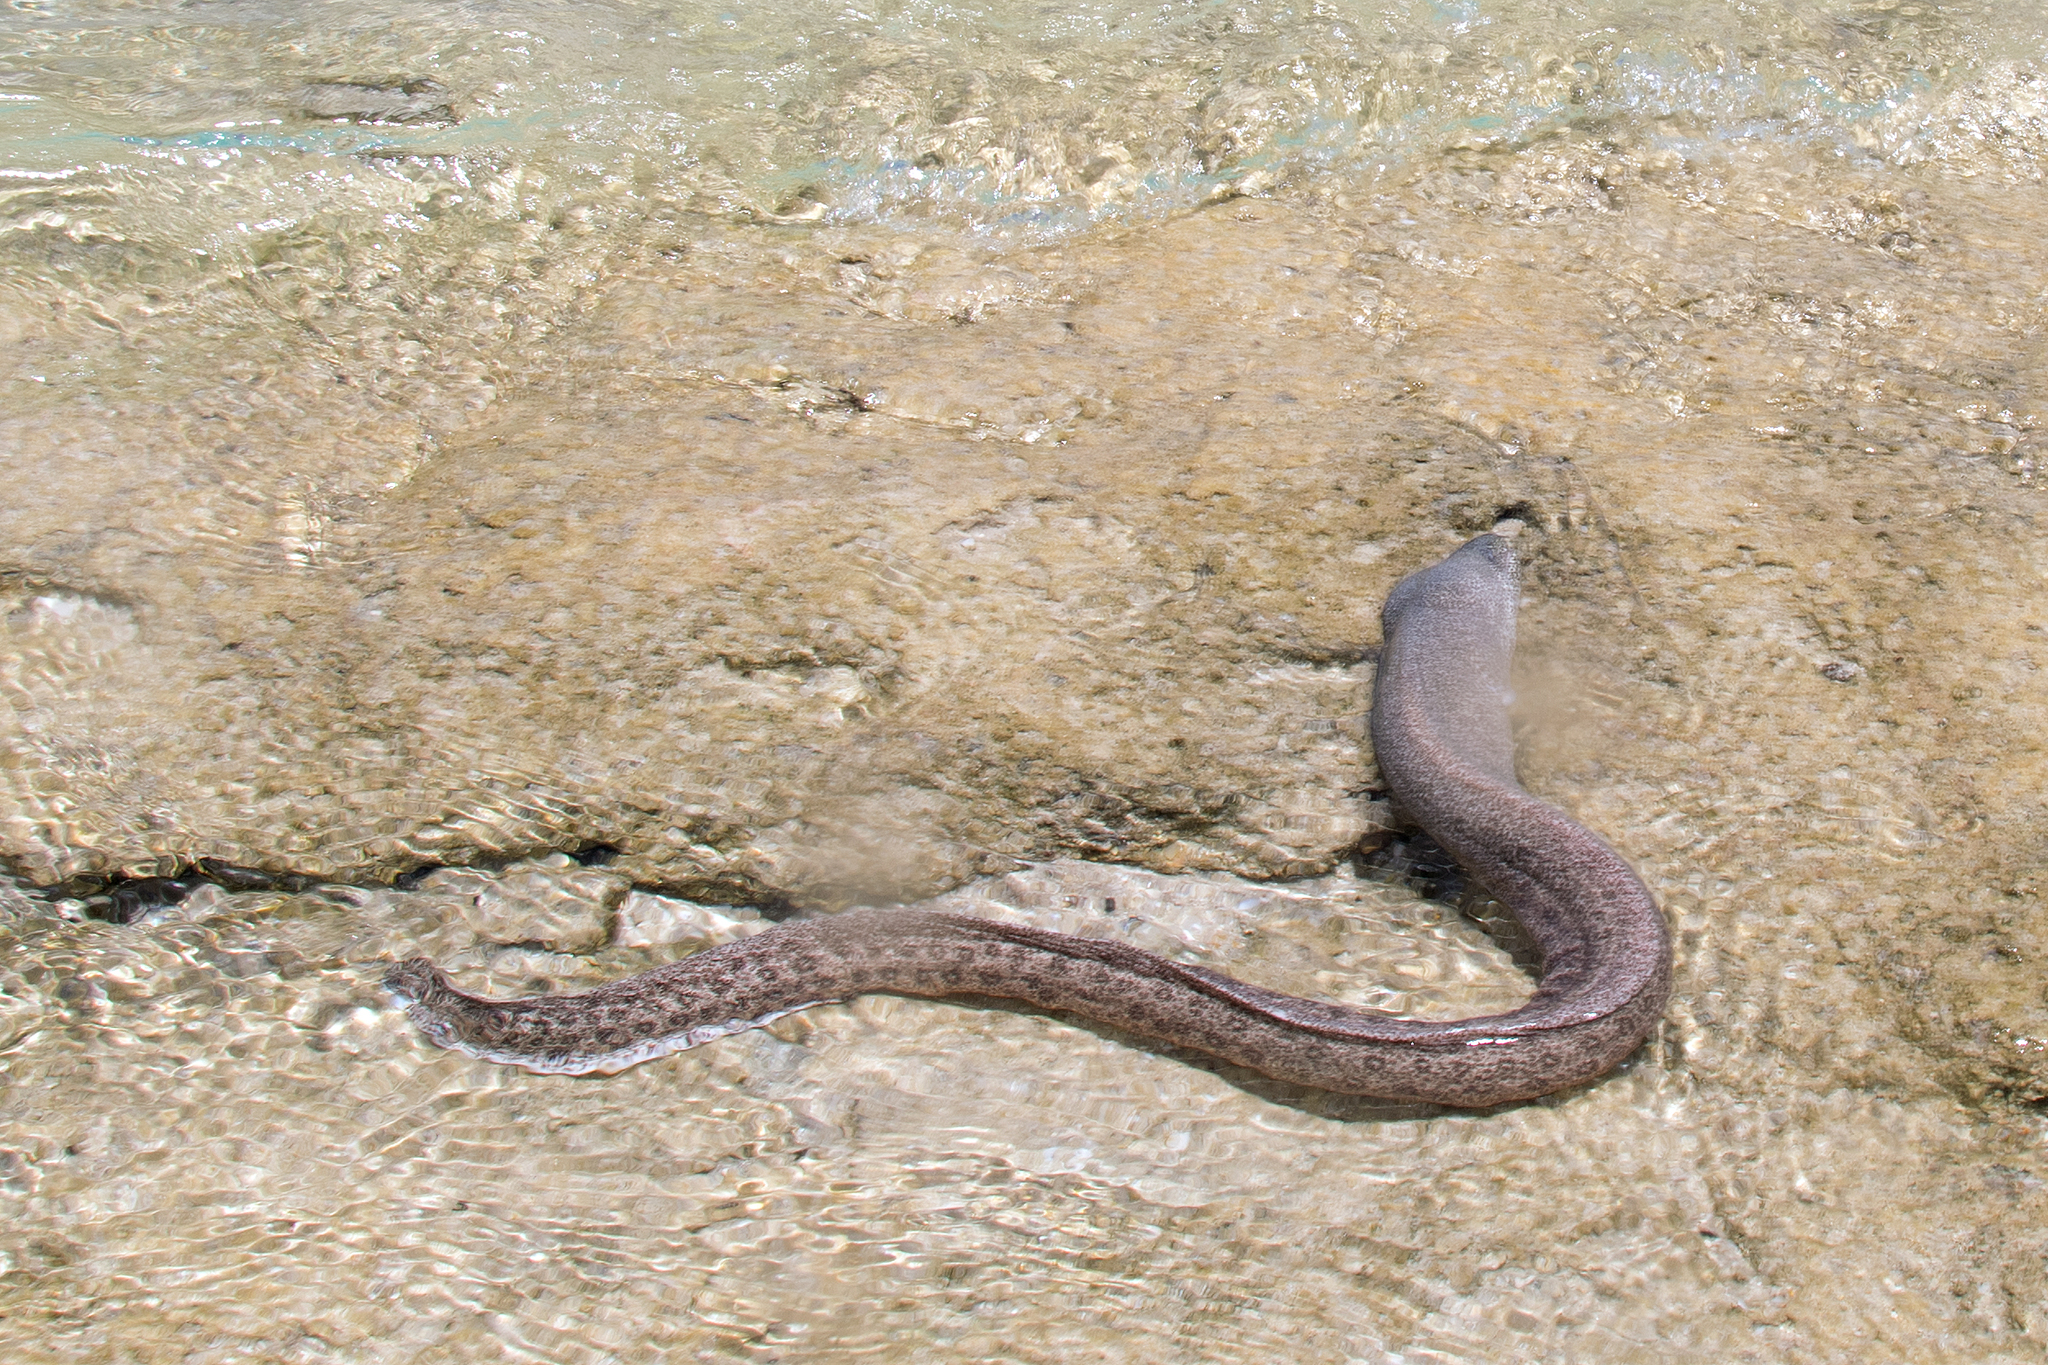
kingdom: Animalia
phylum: Chordata
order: Anguilliformes
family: Muraenidae
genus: Gymnothorax
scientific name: Gymnothorax pictus
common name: Peppered moray
